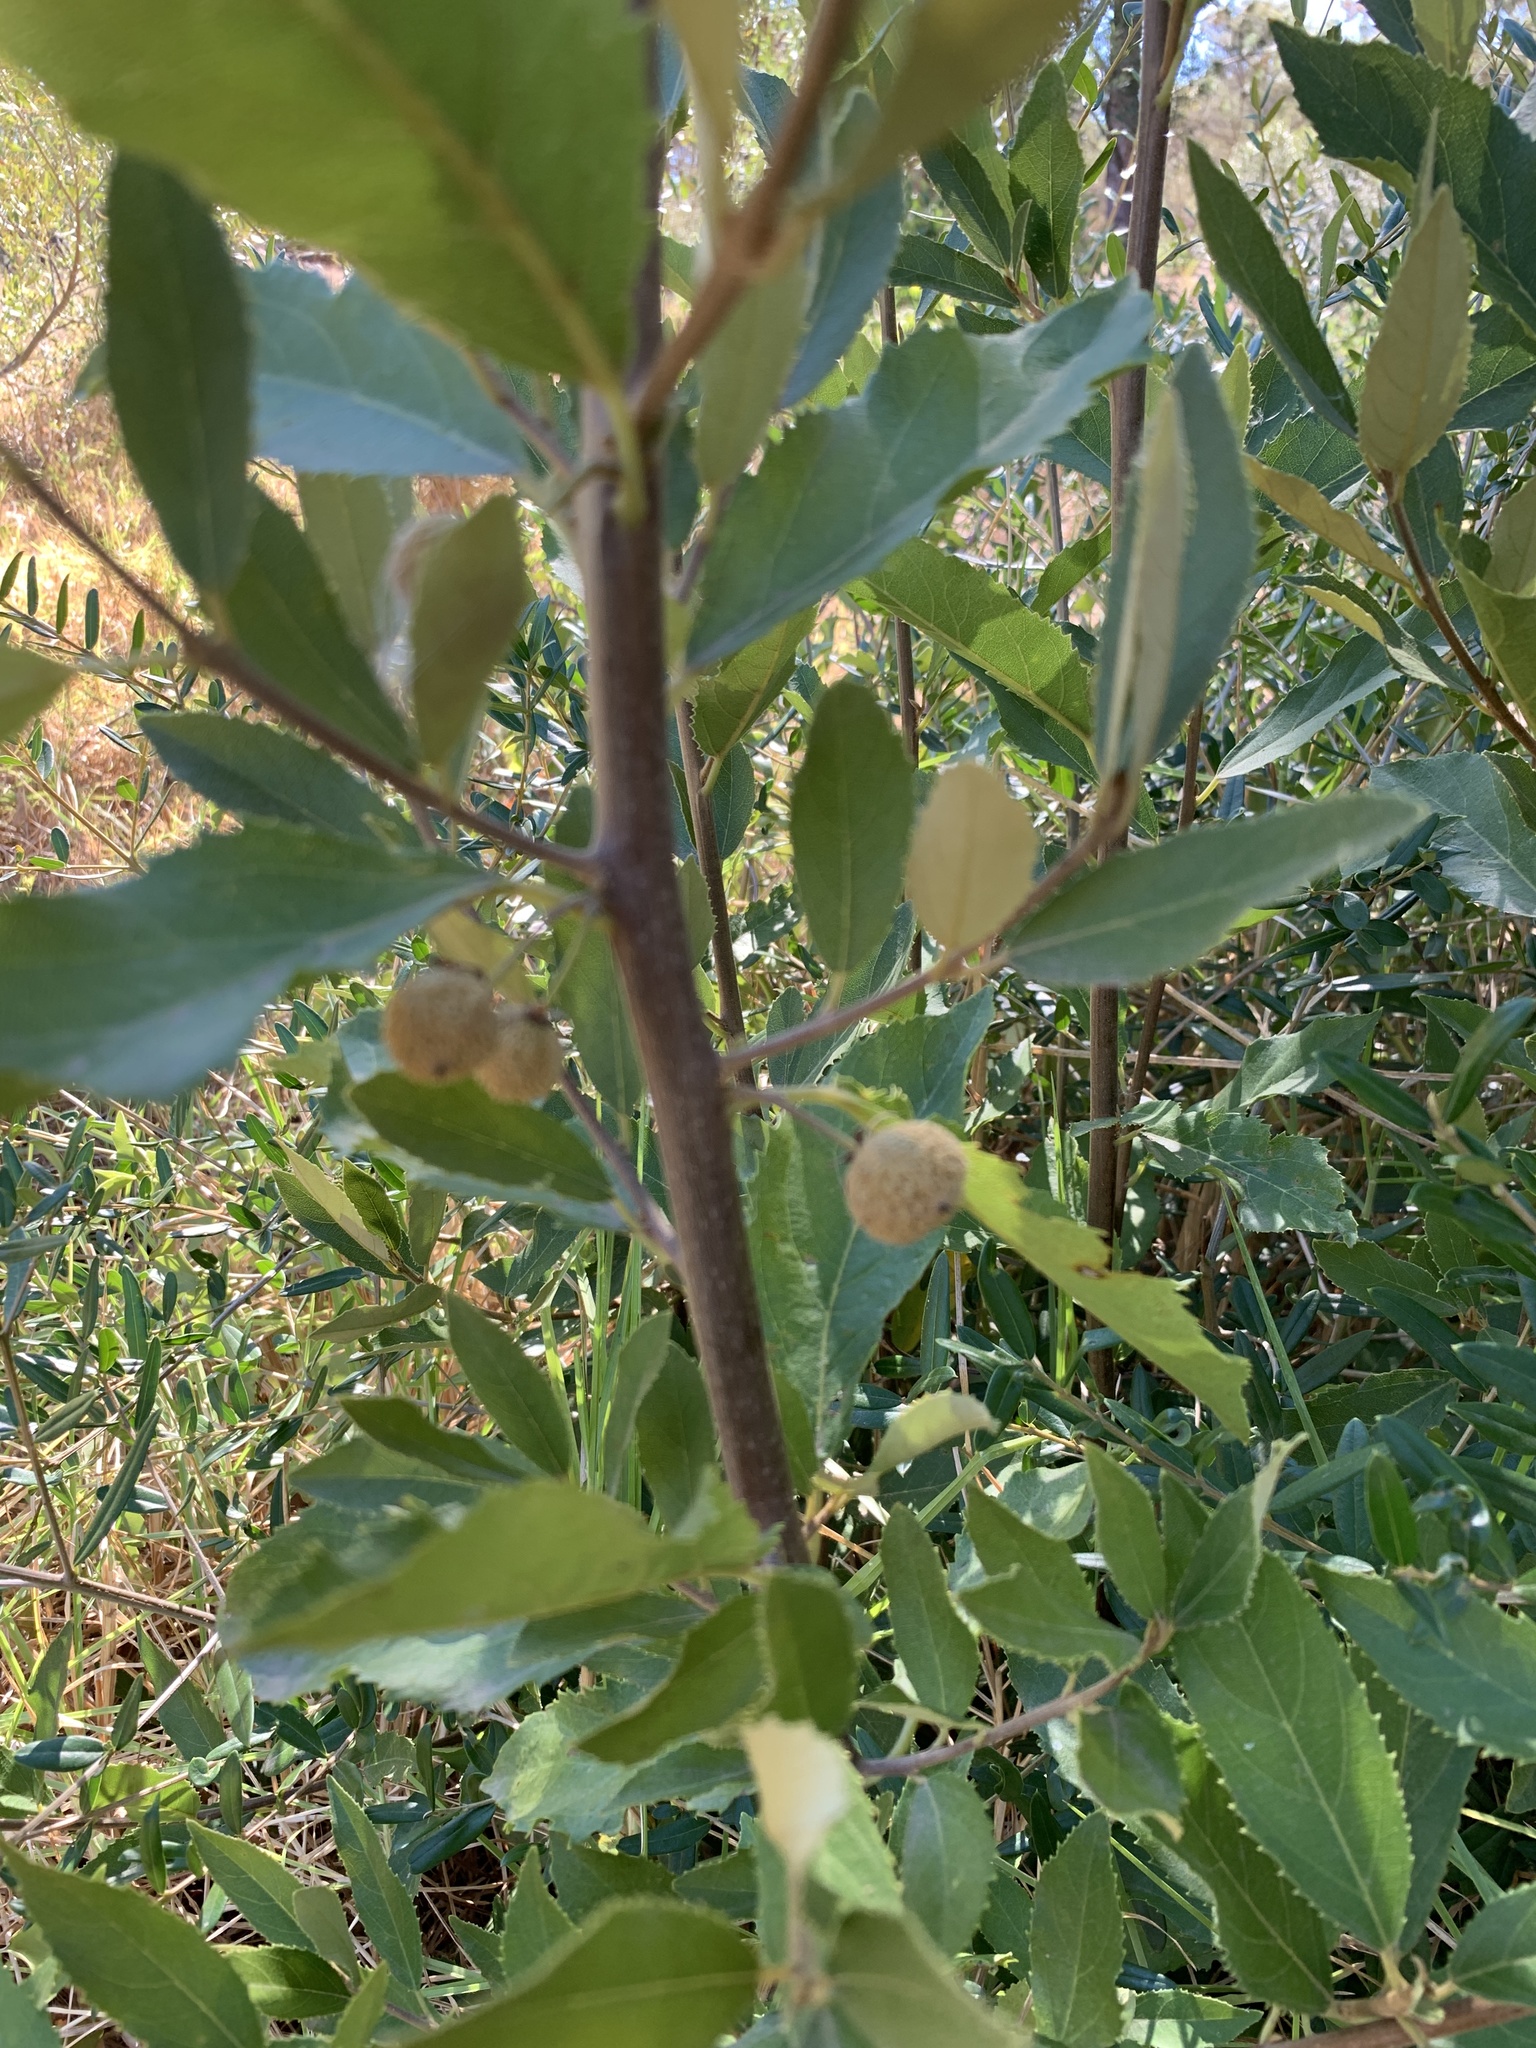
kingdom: Plantae
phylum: Tracheophyta
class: Magnoliopsida
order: Malpighiales
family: Achariaceae
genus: Kiggelaria
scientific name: Kiggelaria africana
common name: Wild peach
